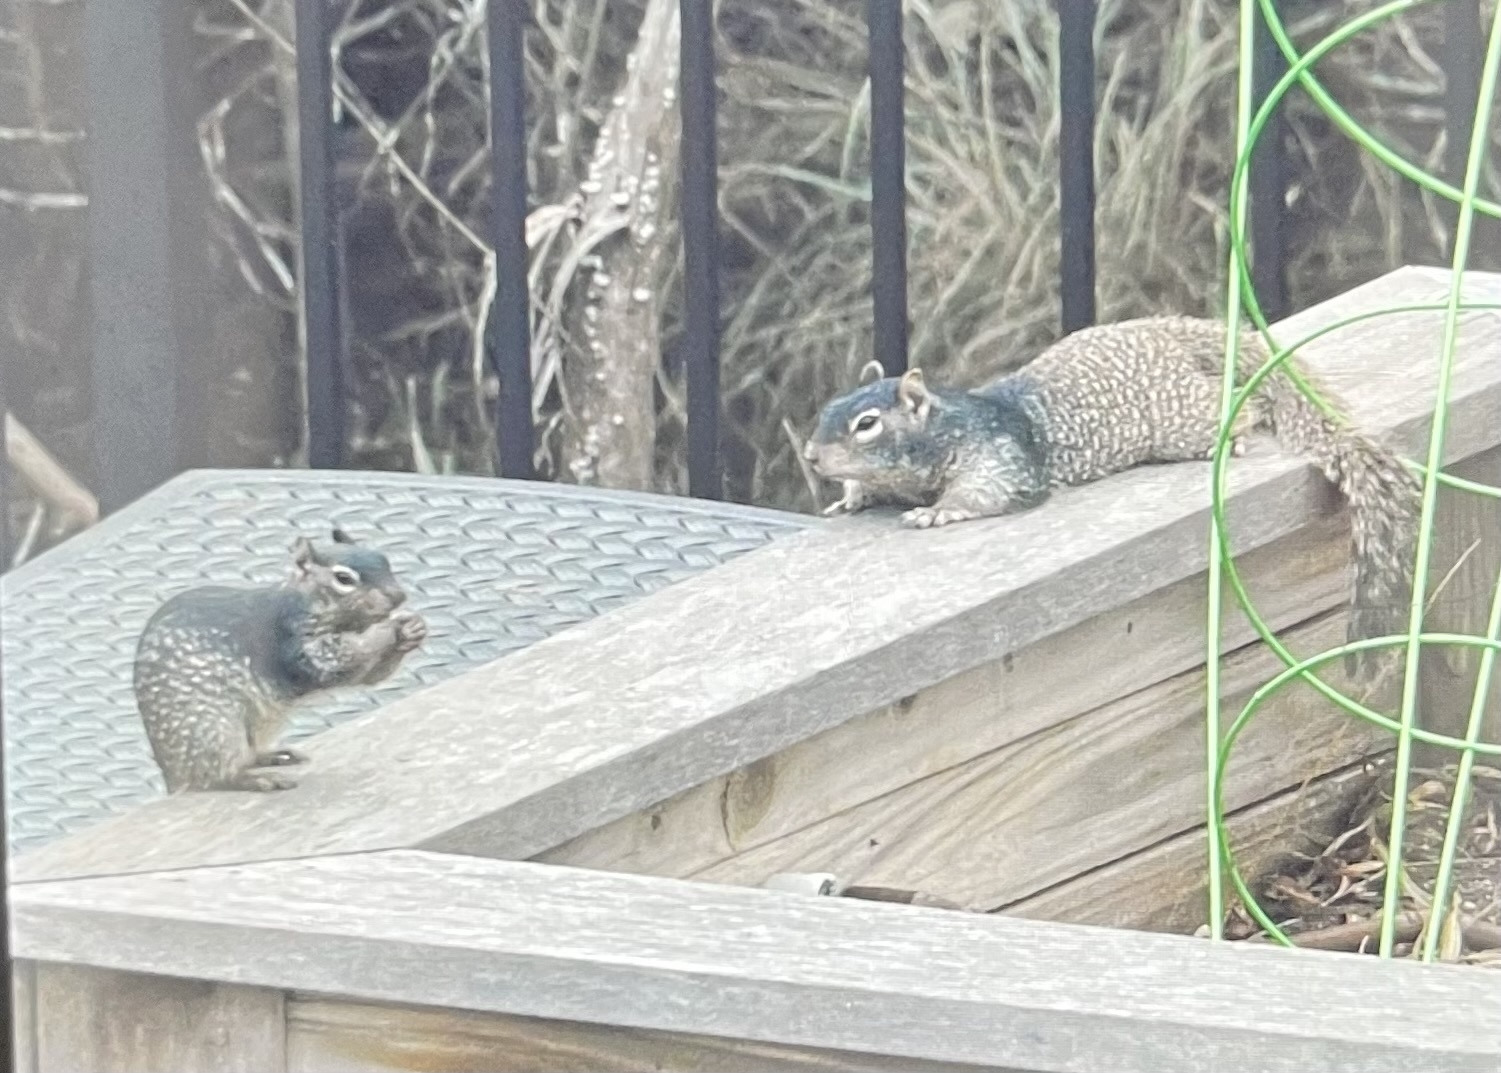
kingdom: Animalia
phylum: Chordata
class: Mammalia
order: Rodentia
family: Sciuridae
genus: Otospermophilus
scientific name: Otospermophilus variegatus
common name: Rock squirrel
